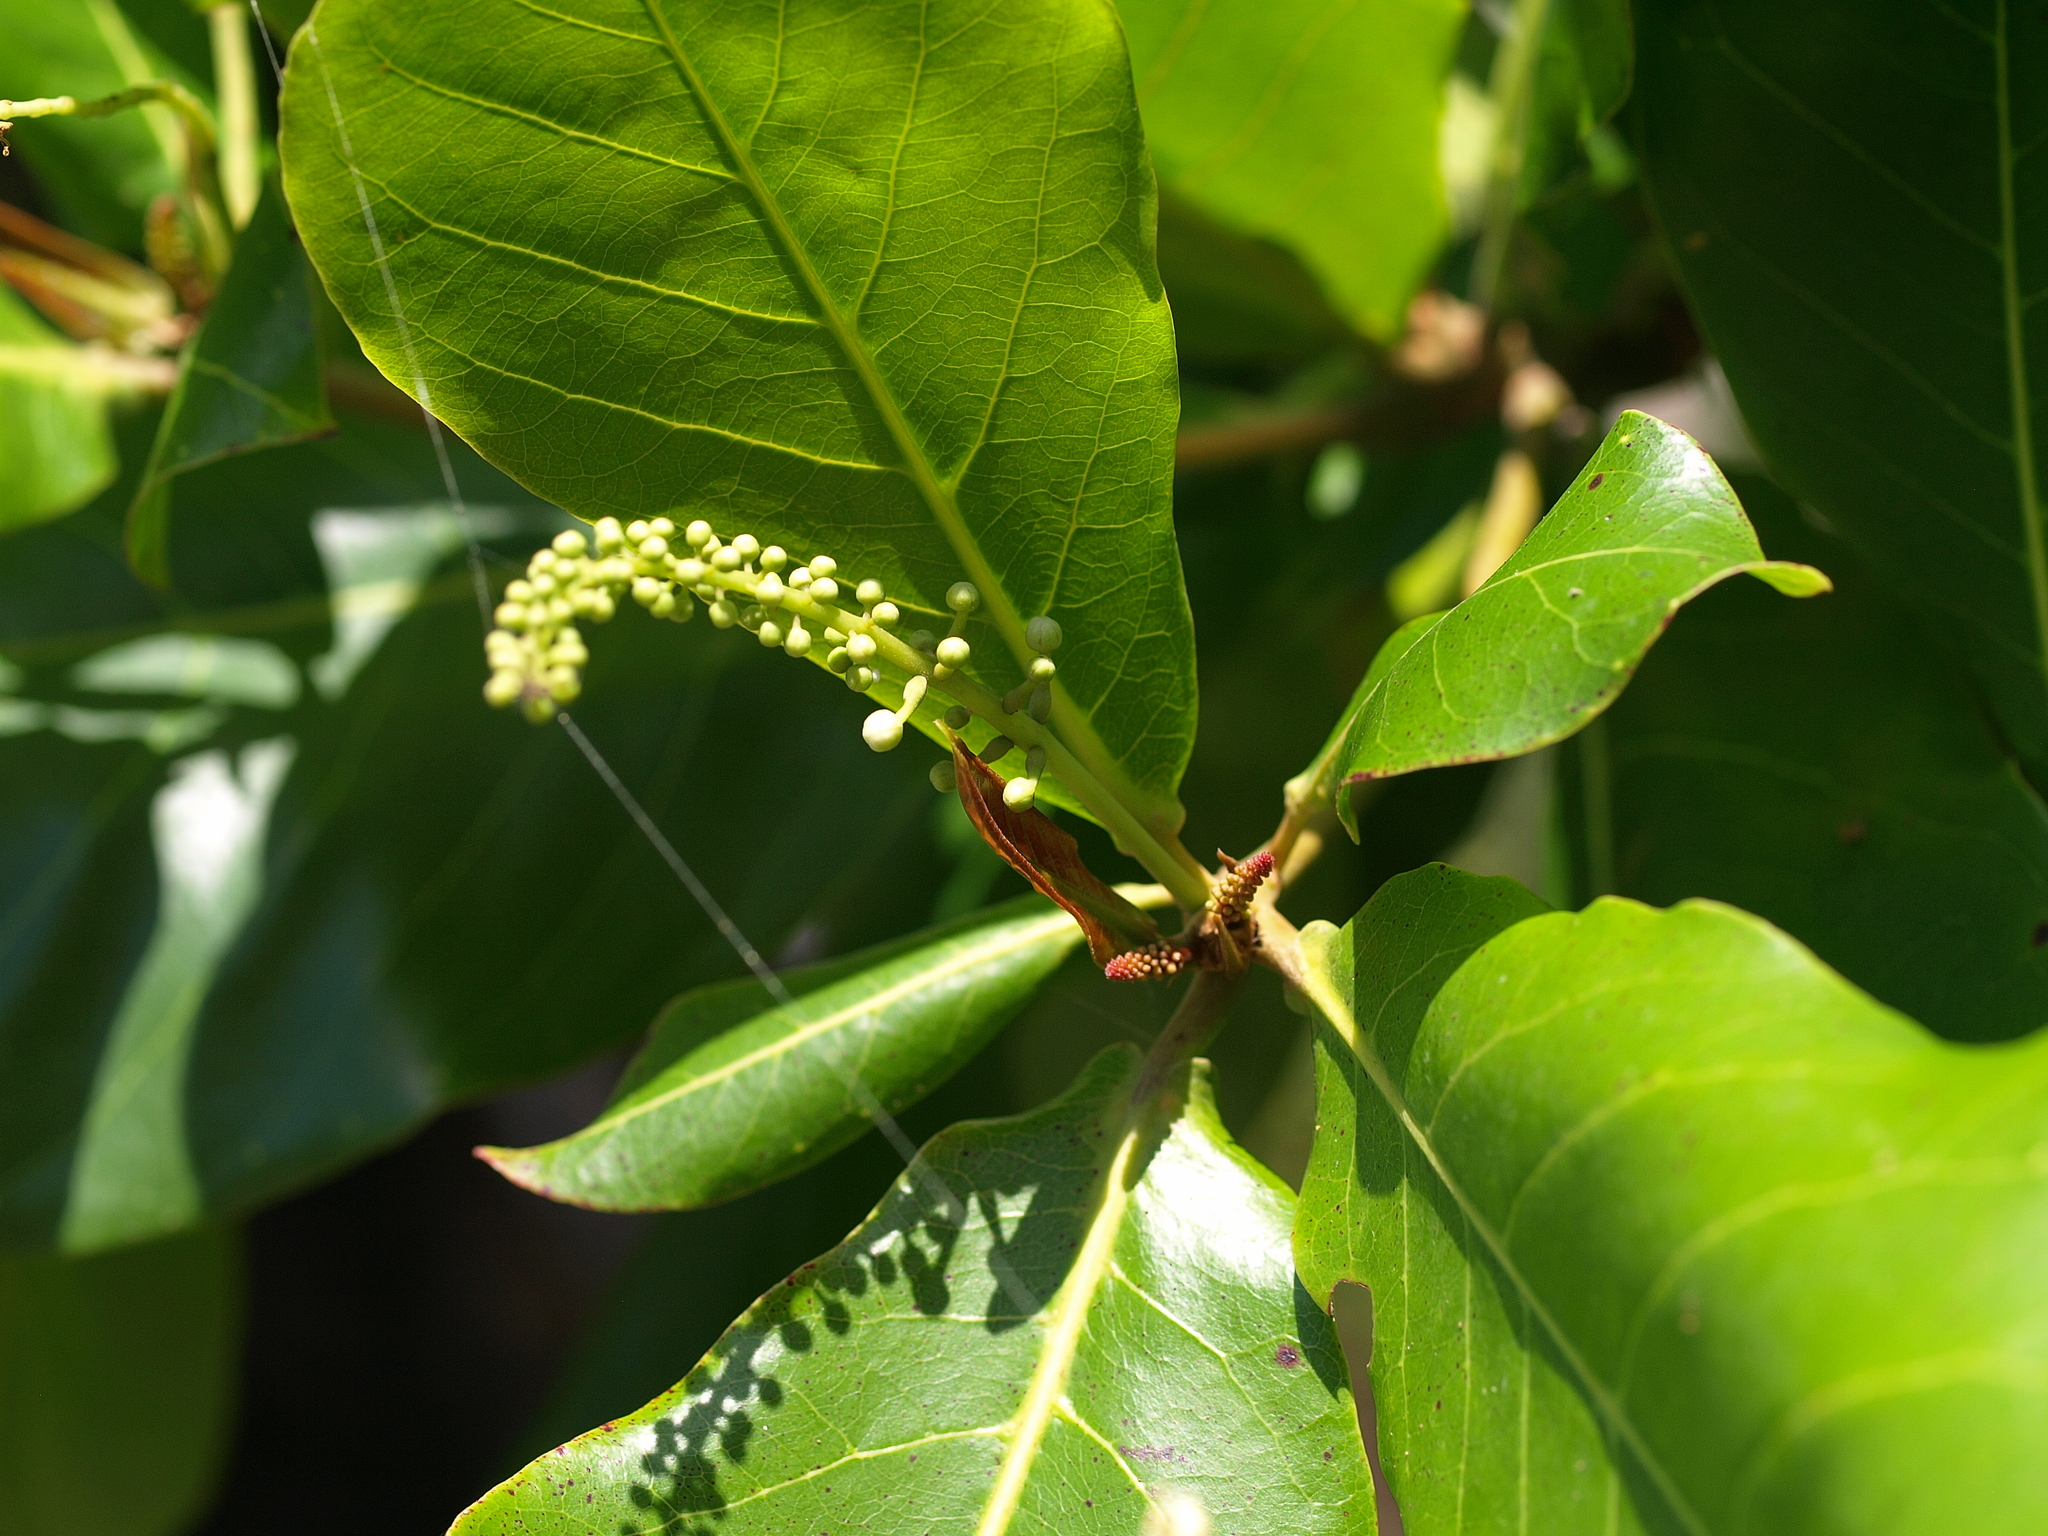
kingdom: Plantae
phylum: Tracheophyta
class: Magnoliopsida
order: Myrtales
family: Combretaceae
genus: Terminalia
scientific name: Terminalia catappa
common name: Tropical almond
